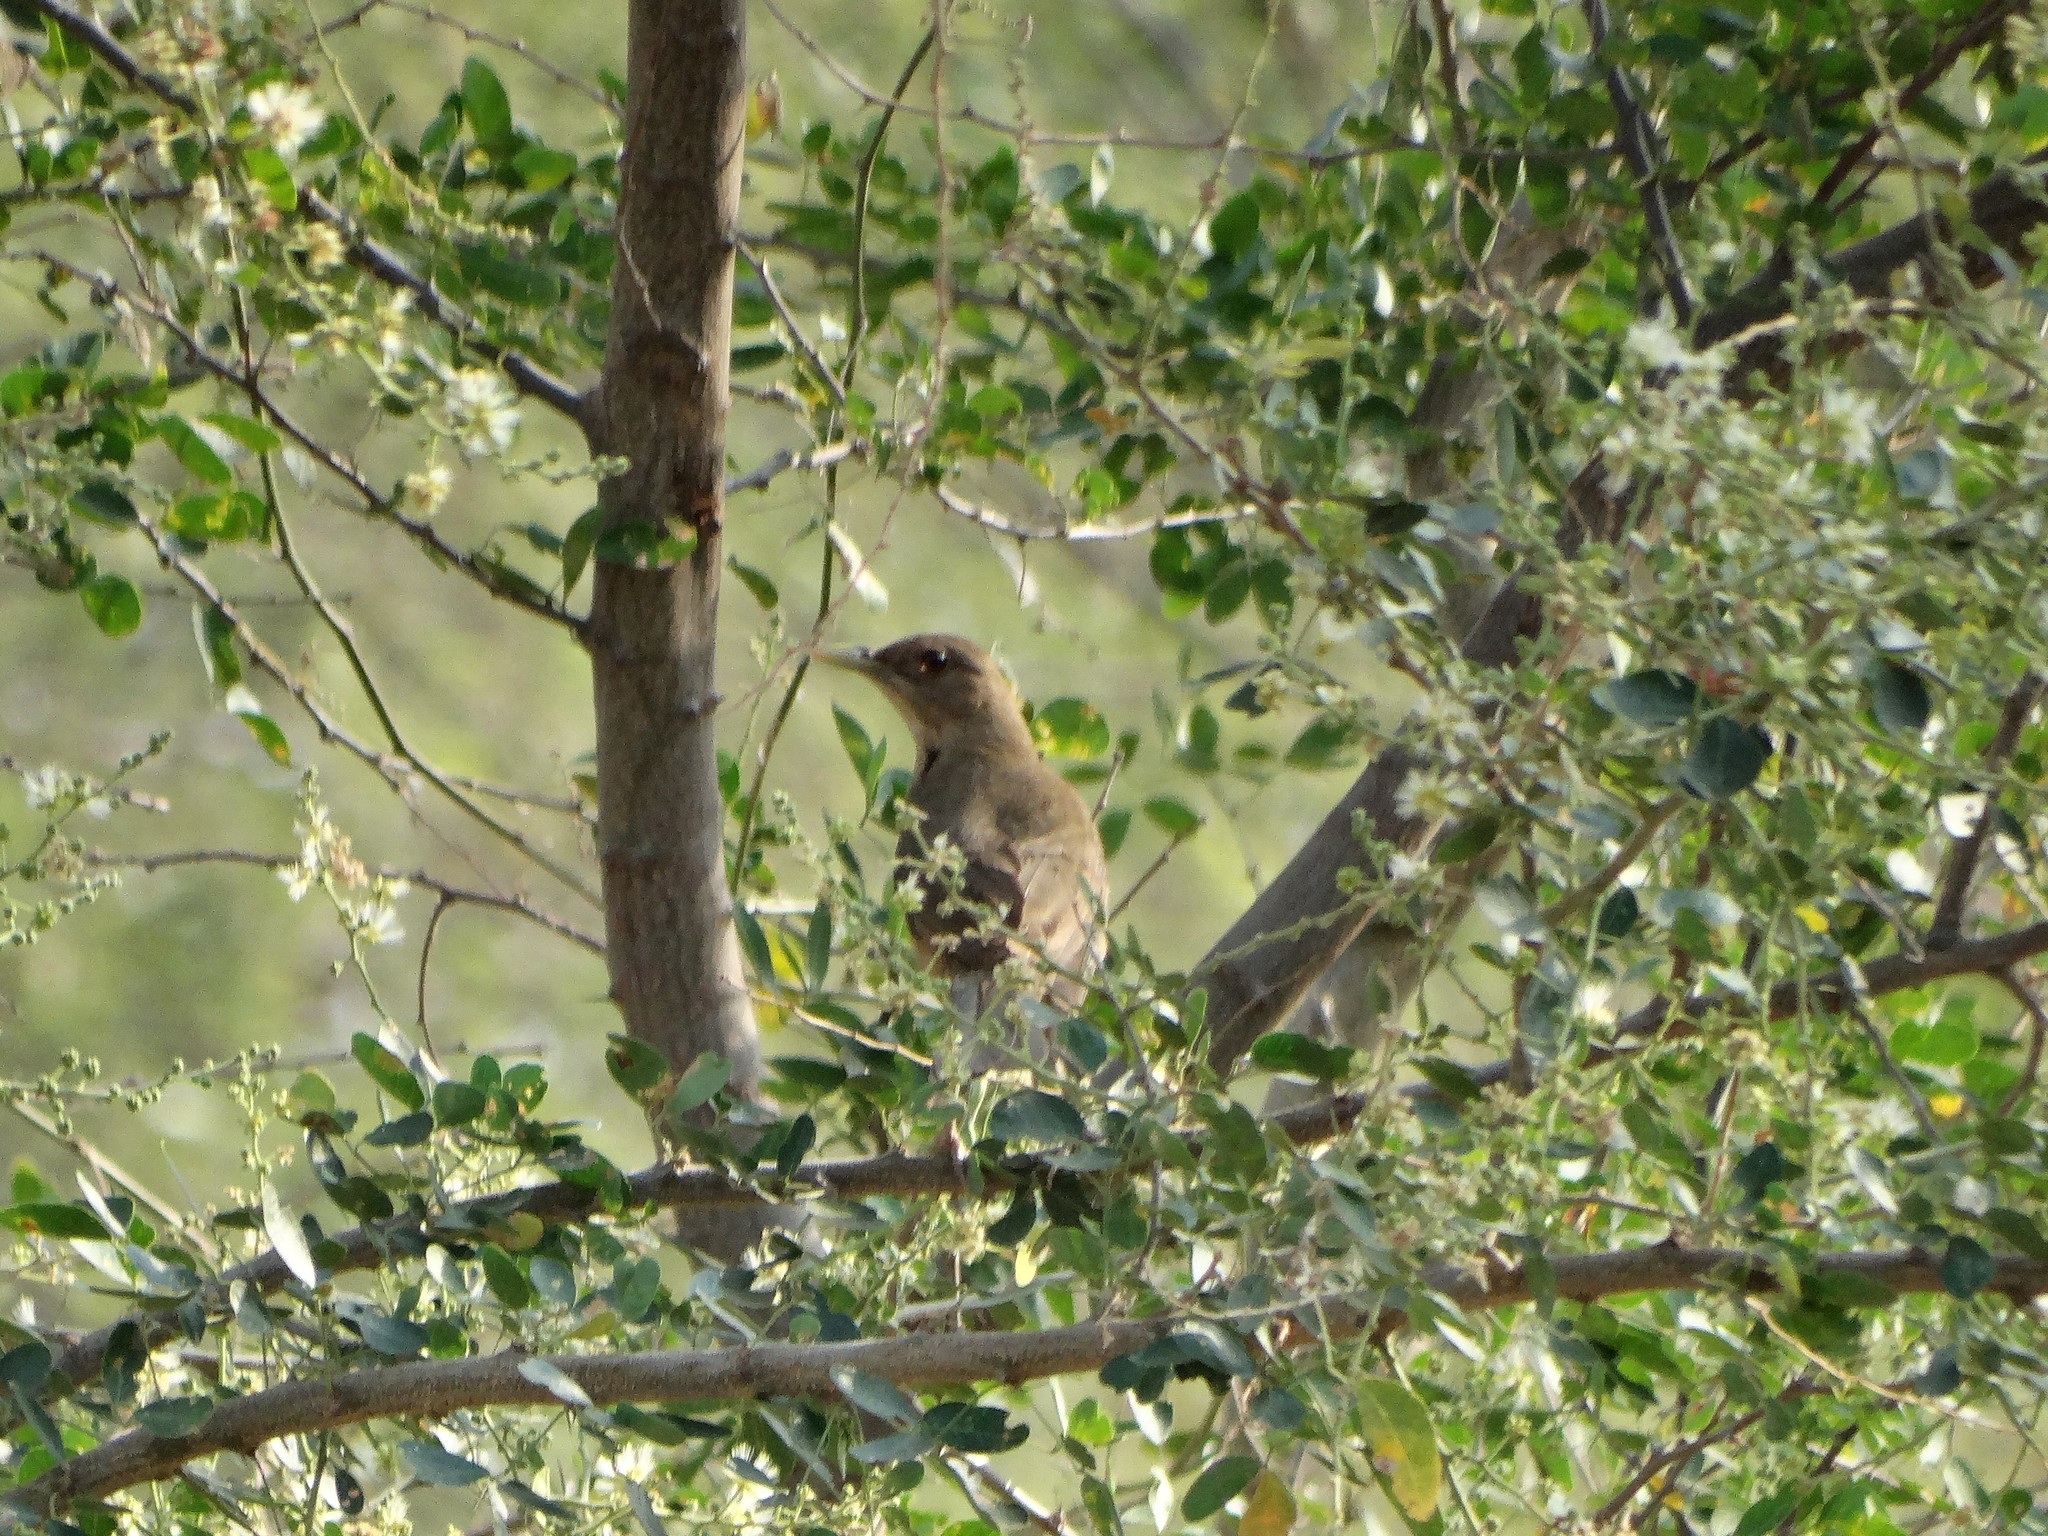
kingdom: Animalia
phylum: Chordata
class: Aves
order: Passeriformes
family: Turdidae
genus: Turdus
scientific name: Turdus grayi
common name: Clay-colored thrush
